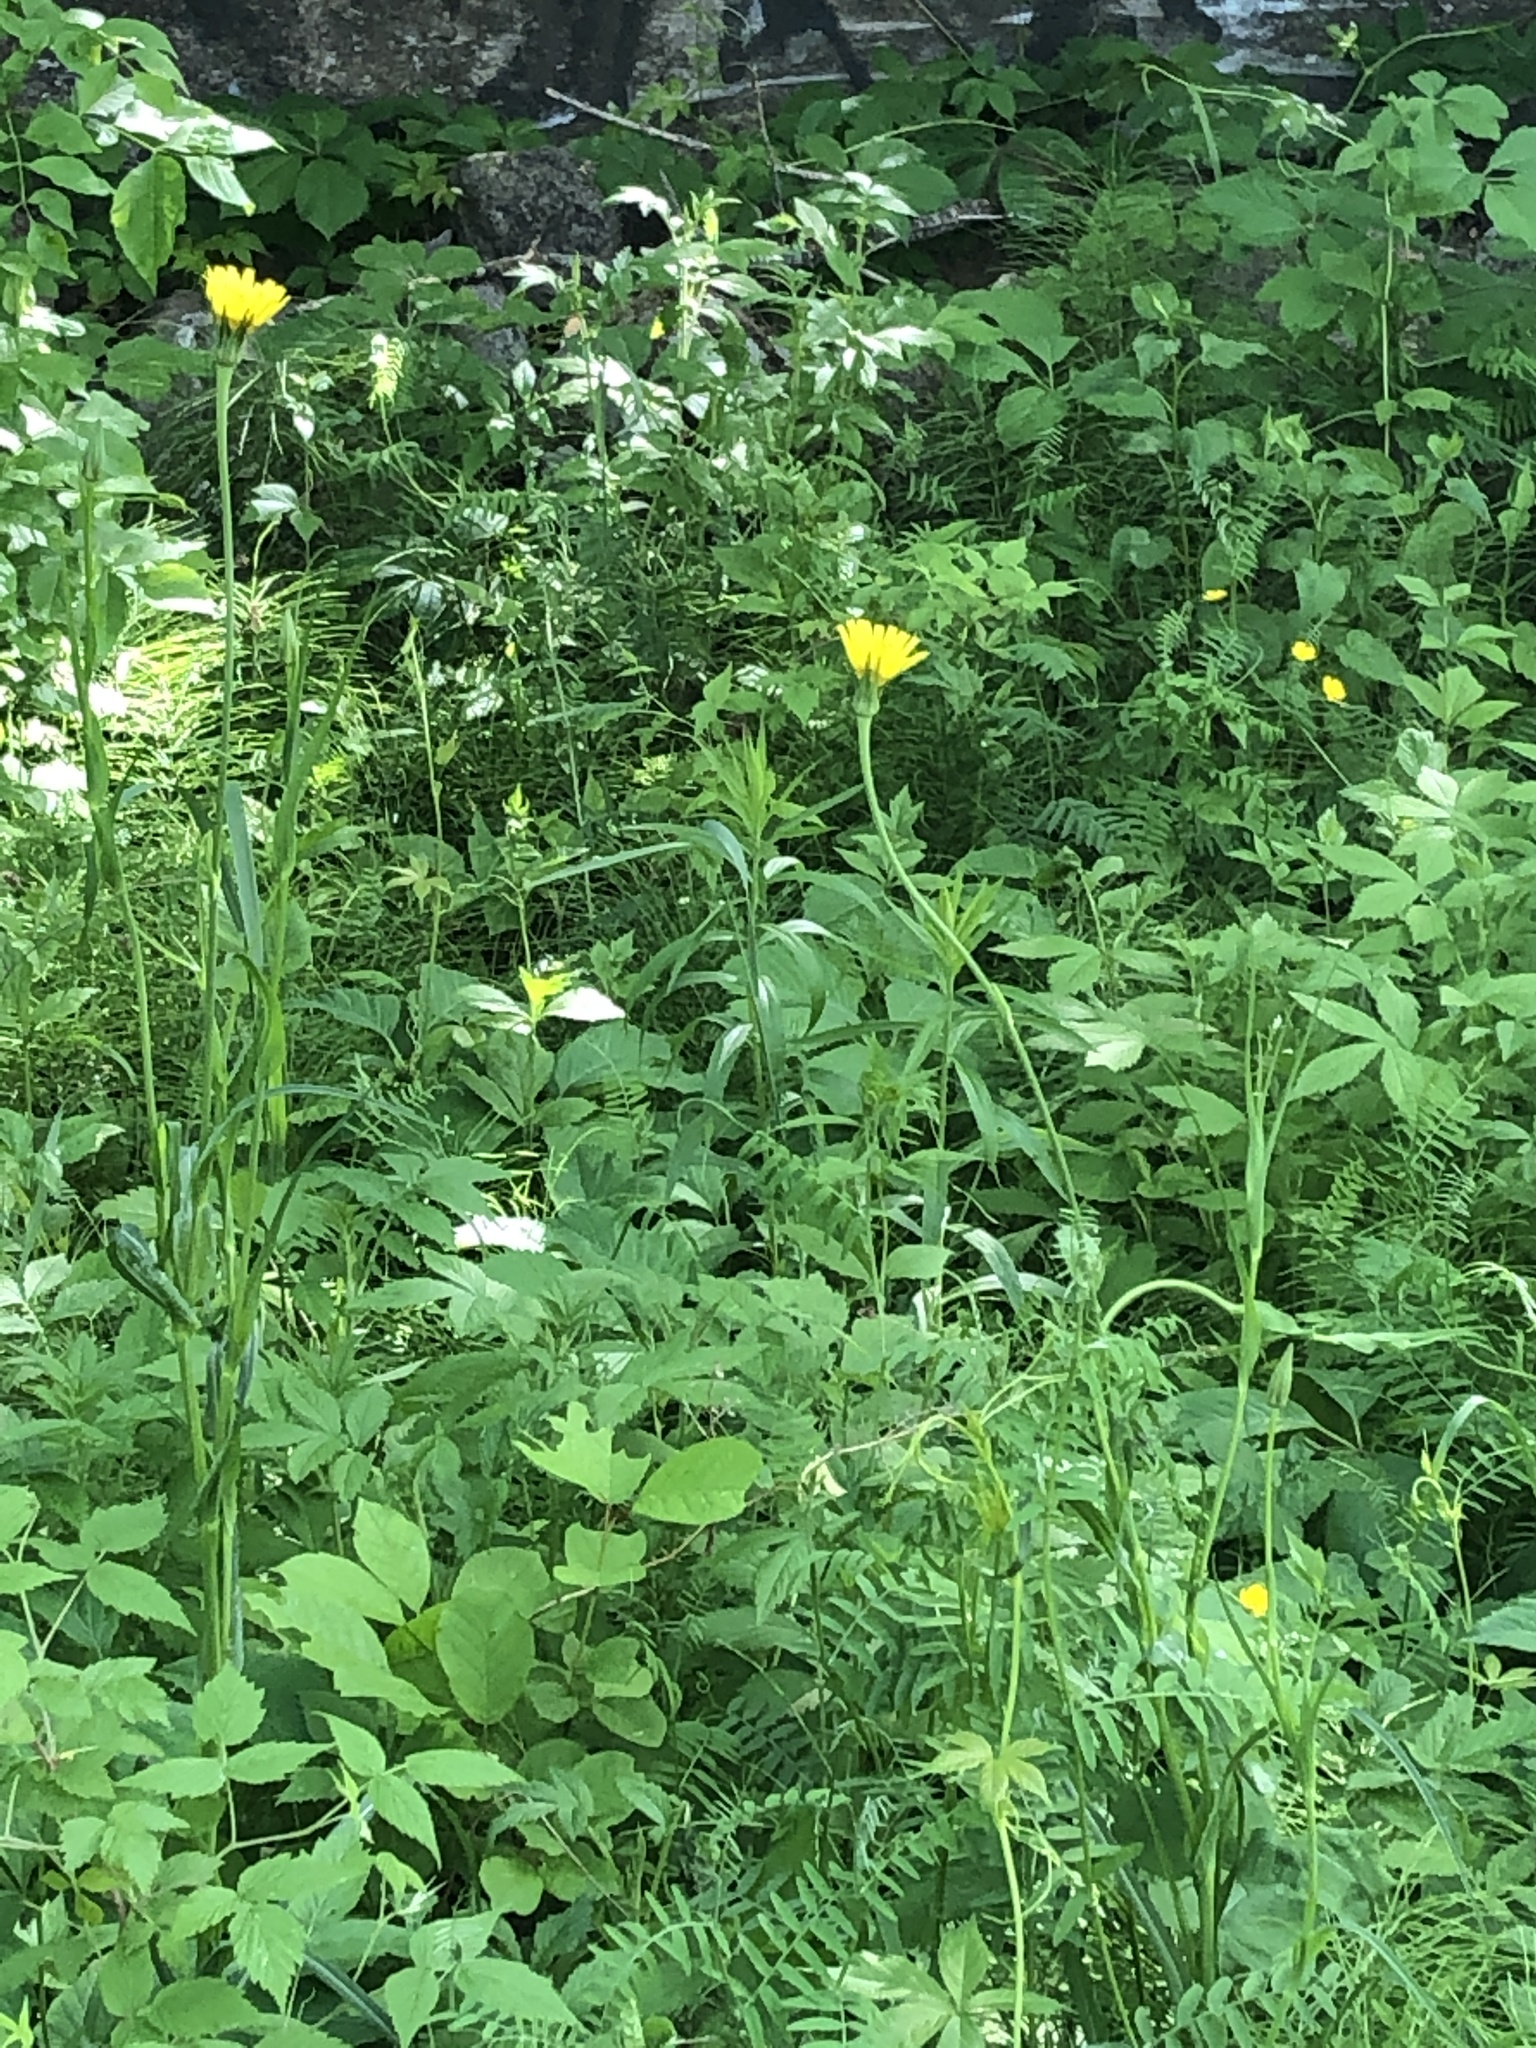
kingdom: Plantae
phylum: Tracheophyta
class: Magnoliopsida
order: Asterales
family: Asteraceae
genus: Tragopogon
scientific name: Tragopogon pratensis
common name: Goat's-beard
